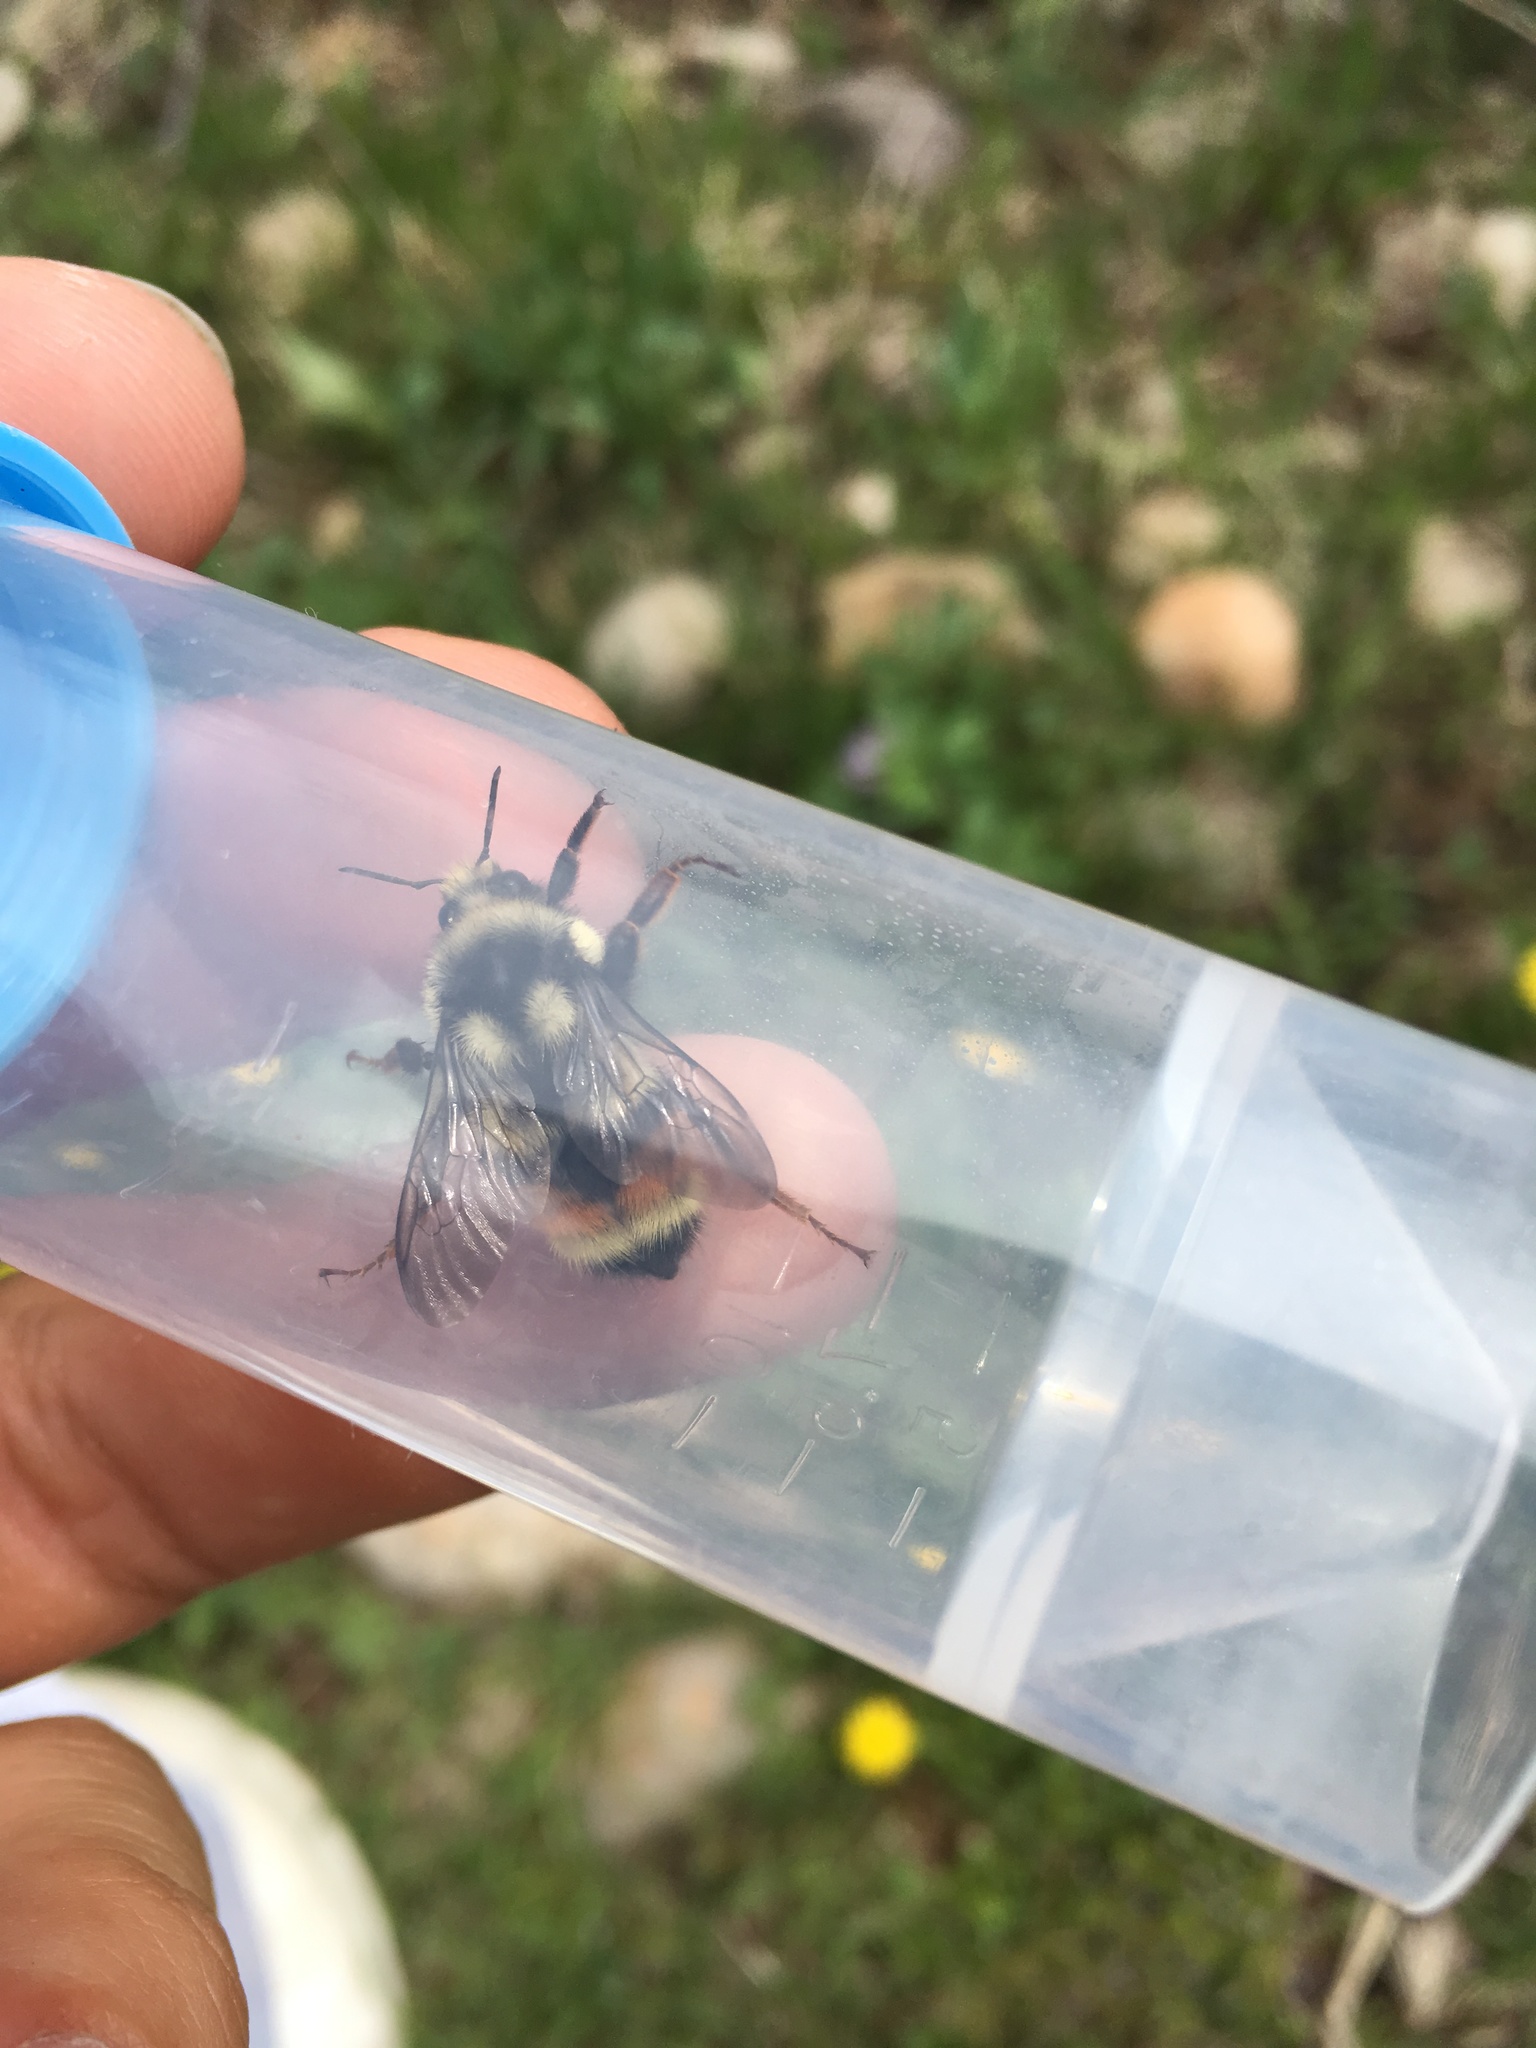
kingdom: Animalia
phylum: Arthropoda
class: Insecta
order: Hymenoptera
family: Apidae
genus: Bombus
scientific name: Bombus vancouverensis
